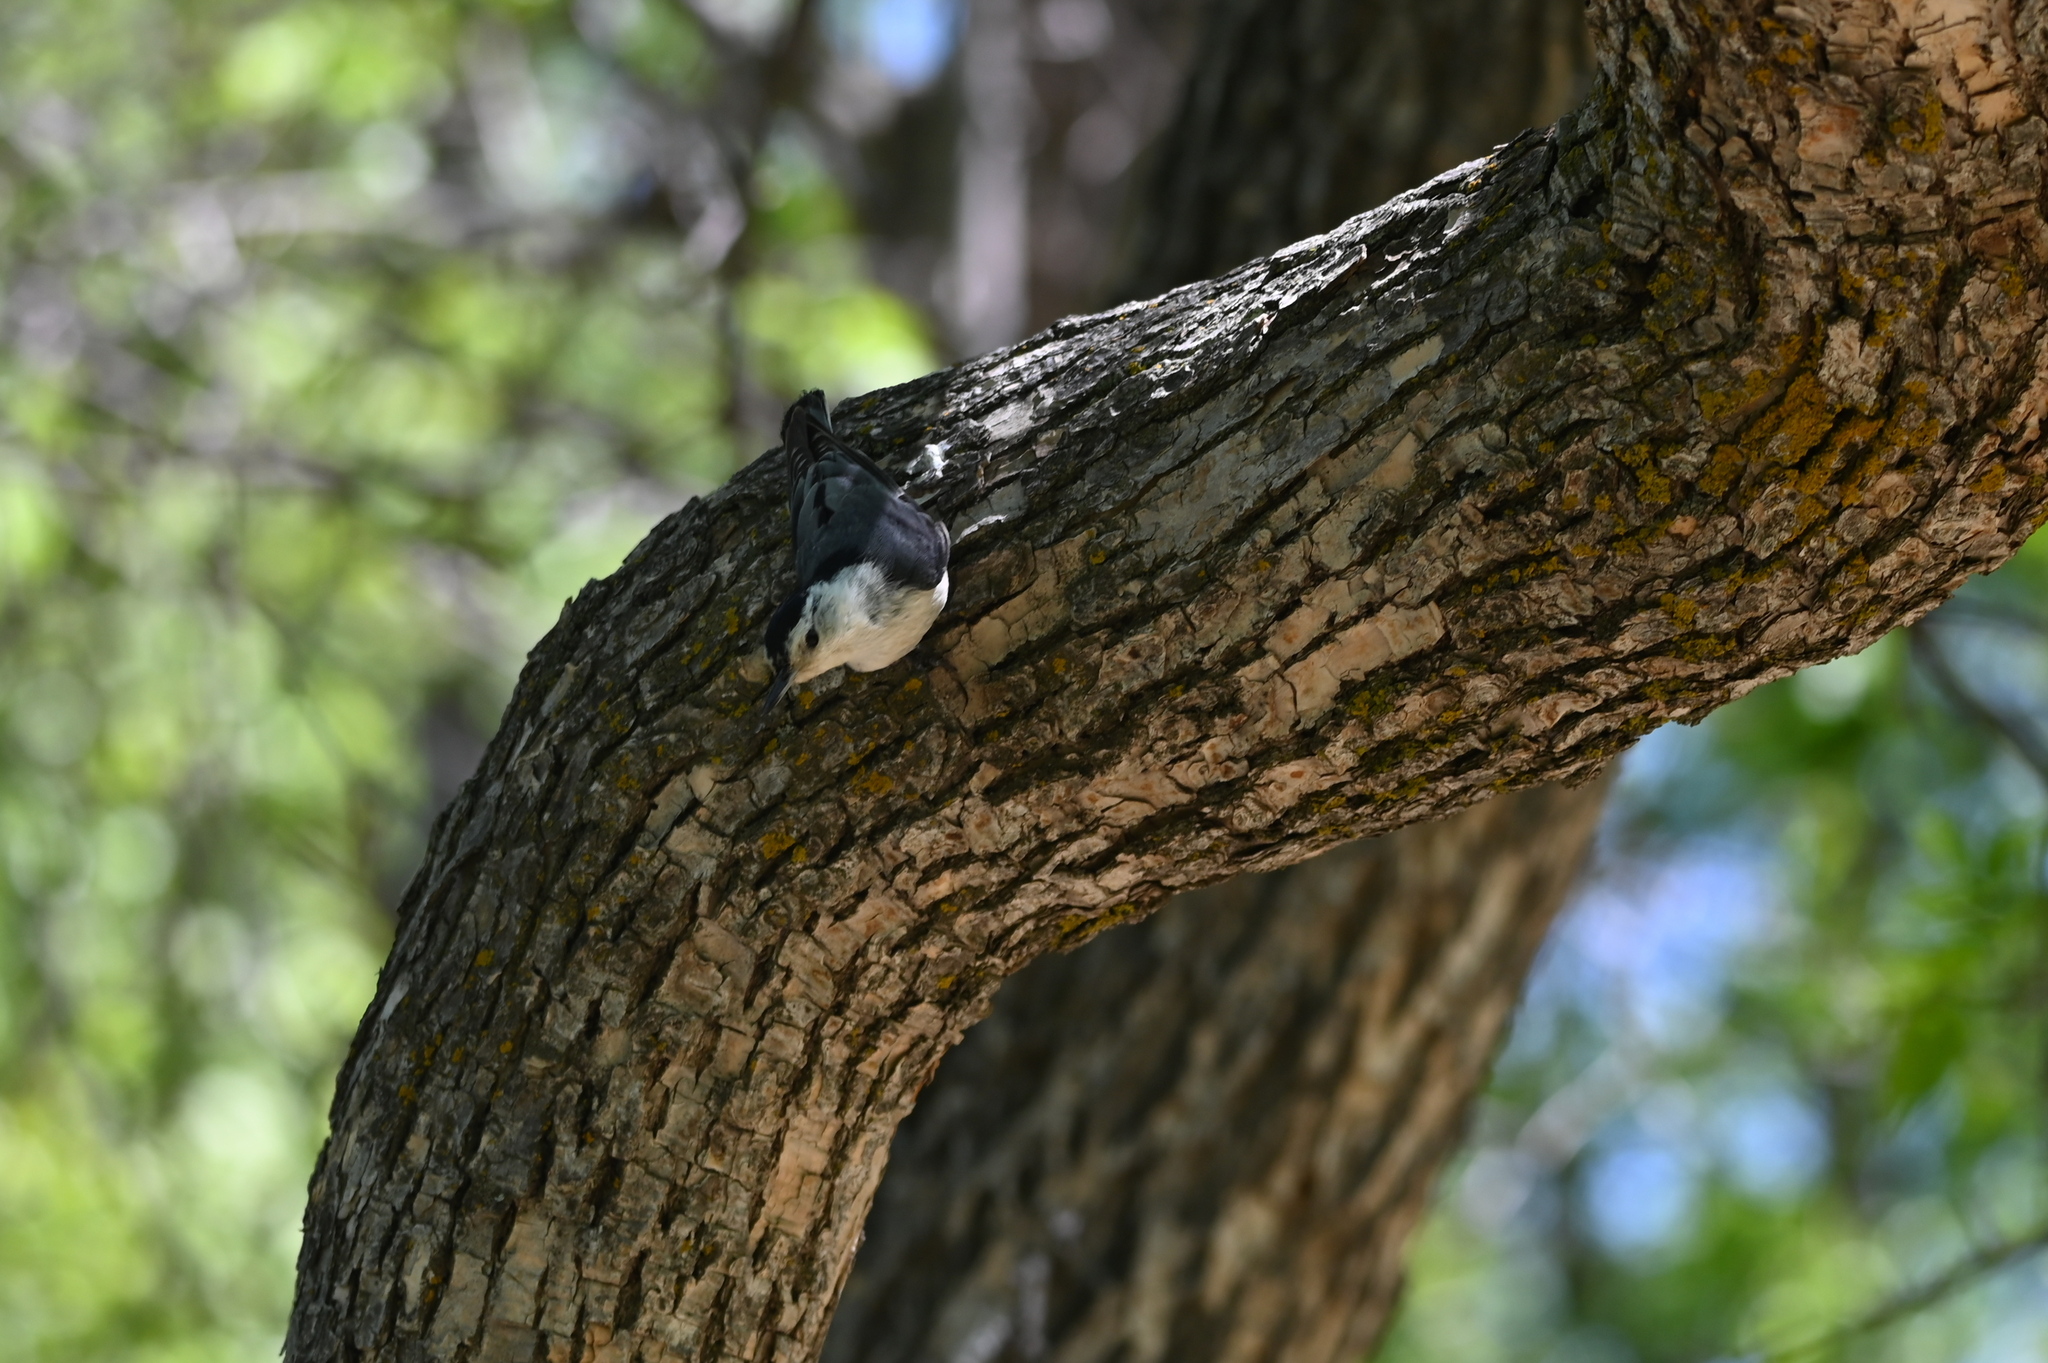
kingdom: Animalia
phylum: Chordata
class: Aves
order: Passeriformes
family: Sittidae
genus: Sitta
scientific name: Sitta carolinensis
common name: White-breasted nuthatch
